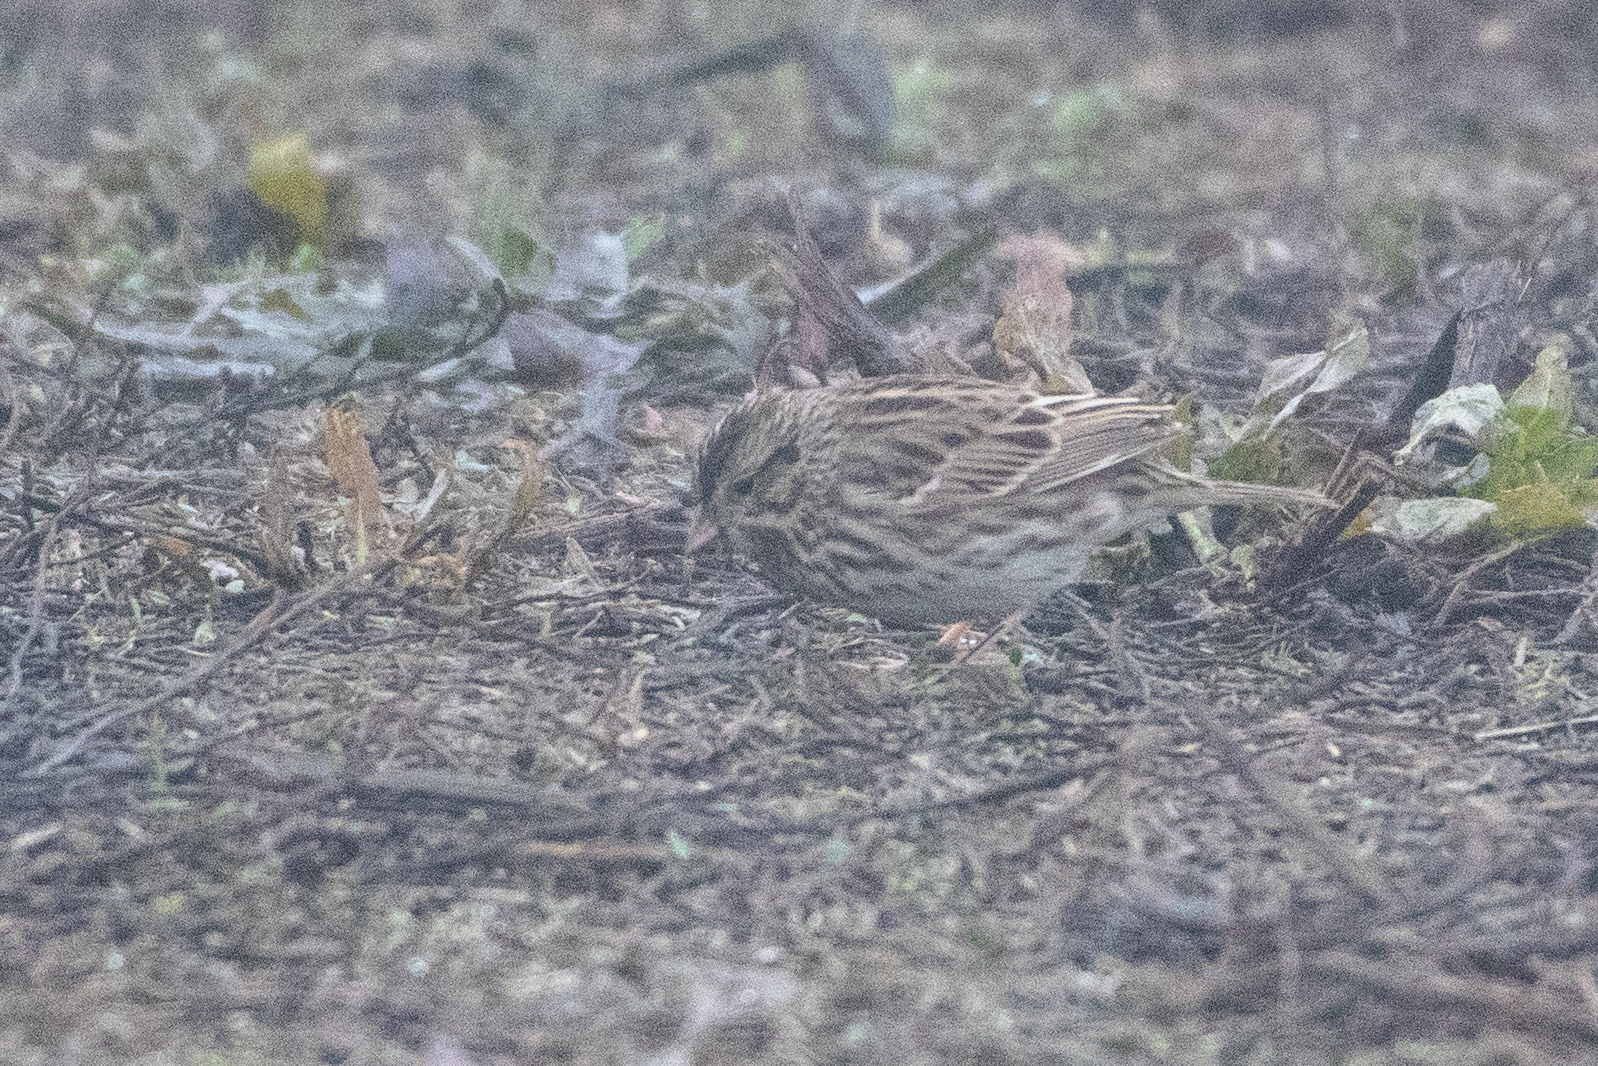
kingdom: Animalia
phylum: Chordata
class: Aves
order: Passeriformes
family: Passerellidae
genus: Passerculus
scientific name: Passerculus sandwichensis
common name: Savannah sparrow
